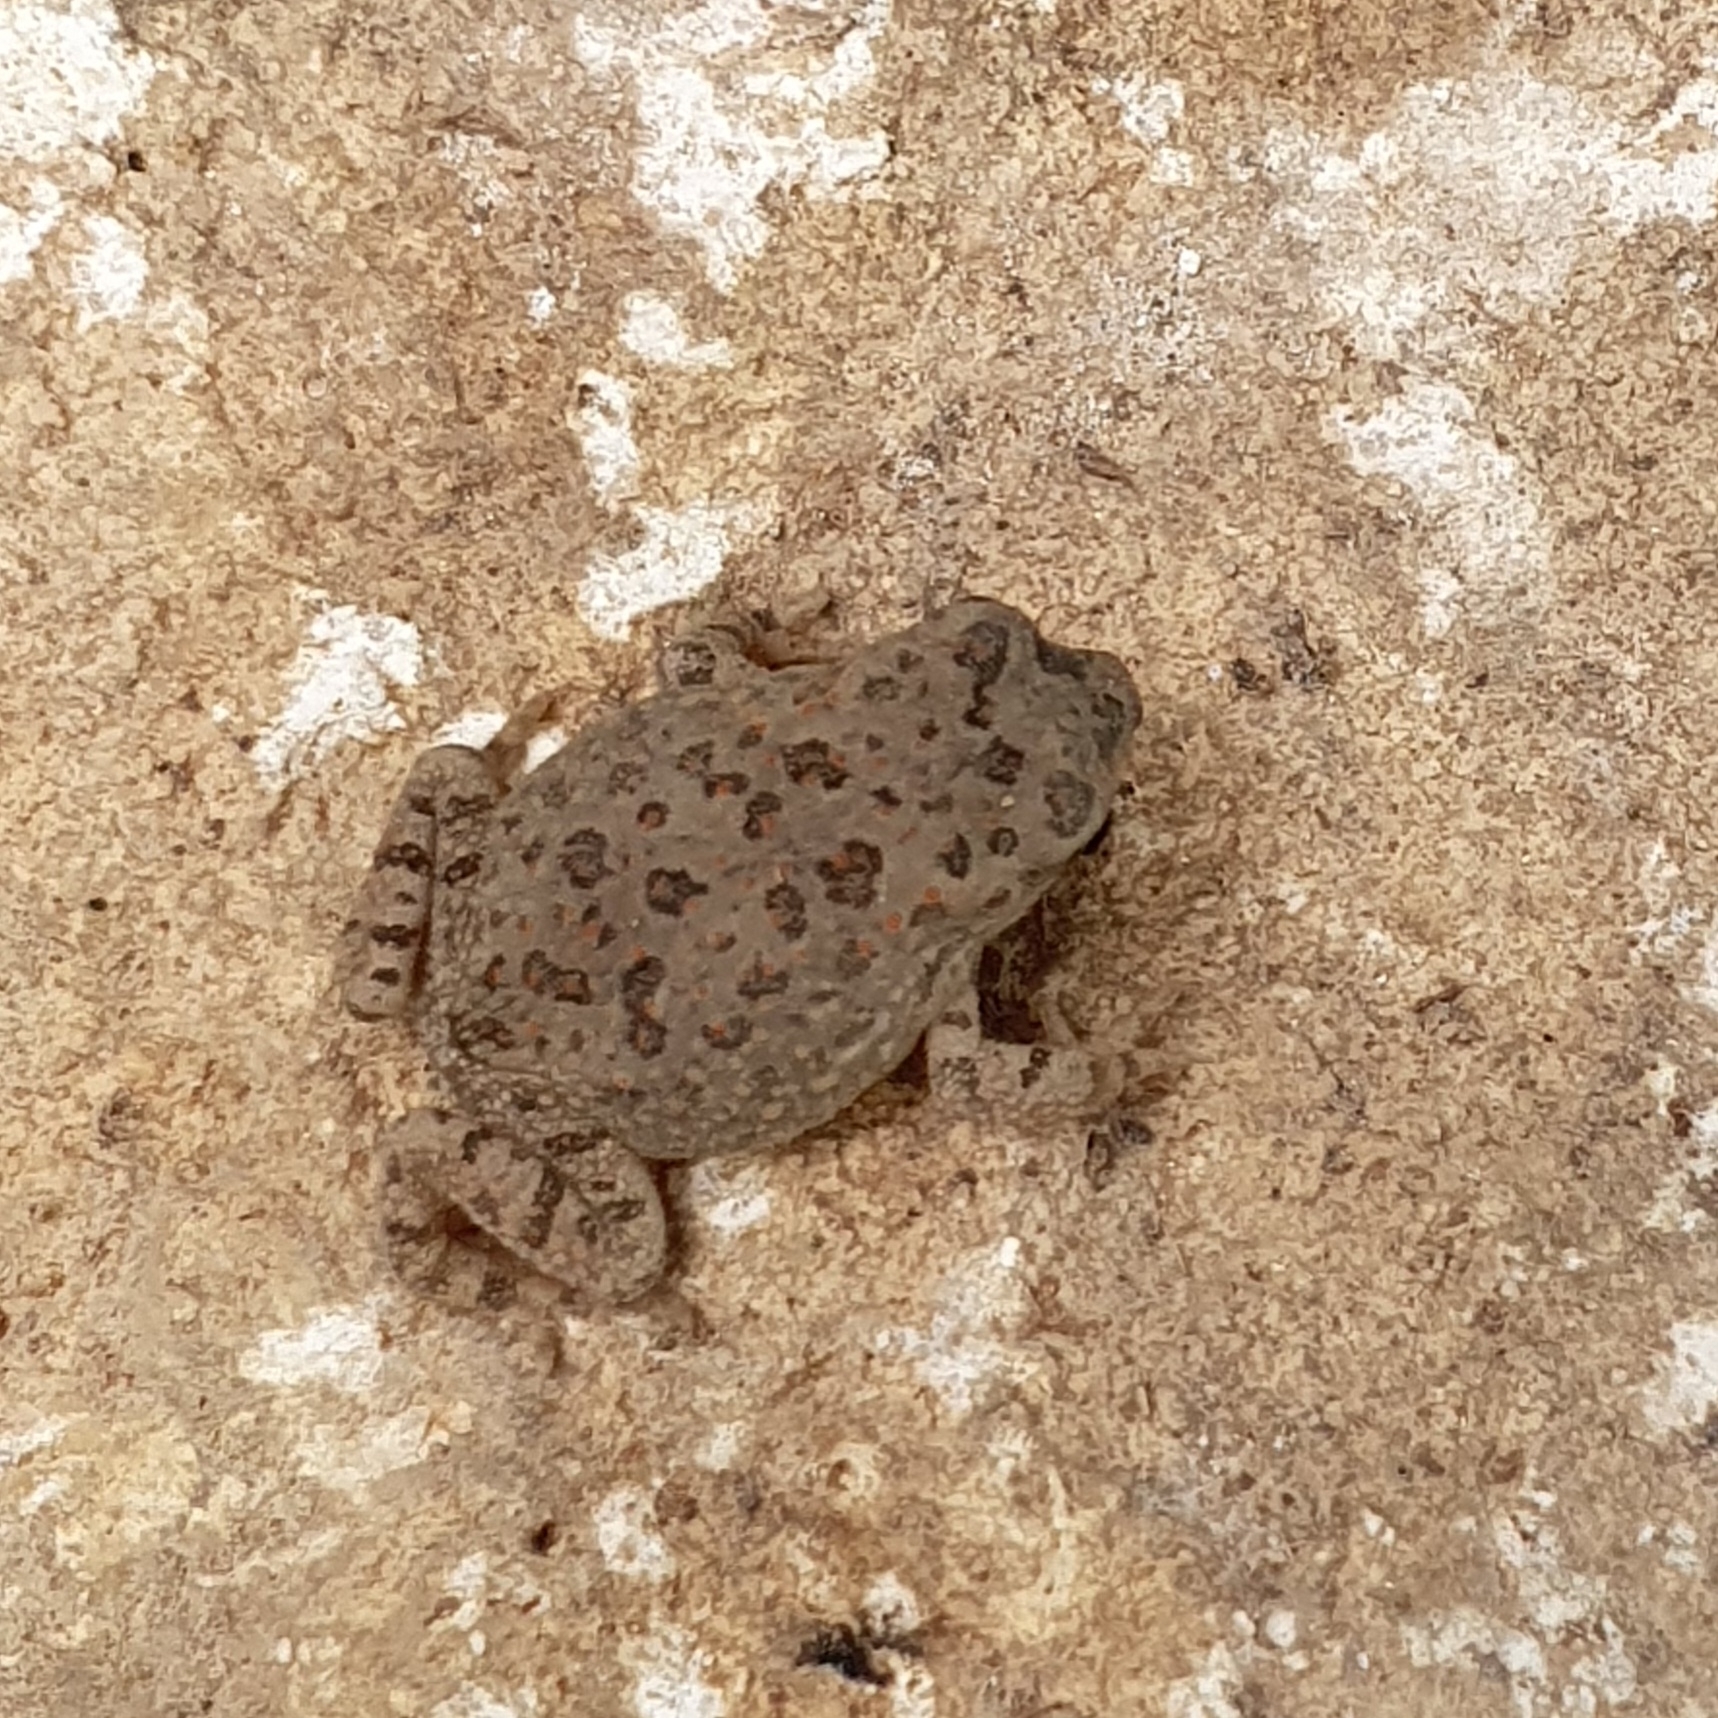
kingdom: Animalia
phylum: Chordata
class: Amphibia
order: Anura
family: Bufonidae
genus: Sclerophrys
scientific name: Sclerophrys mauritanica
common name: Berber toad
